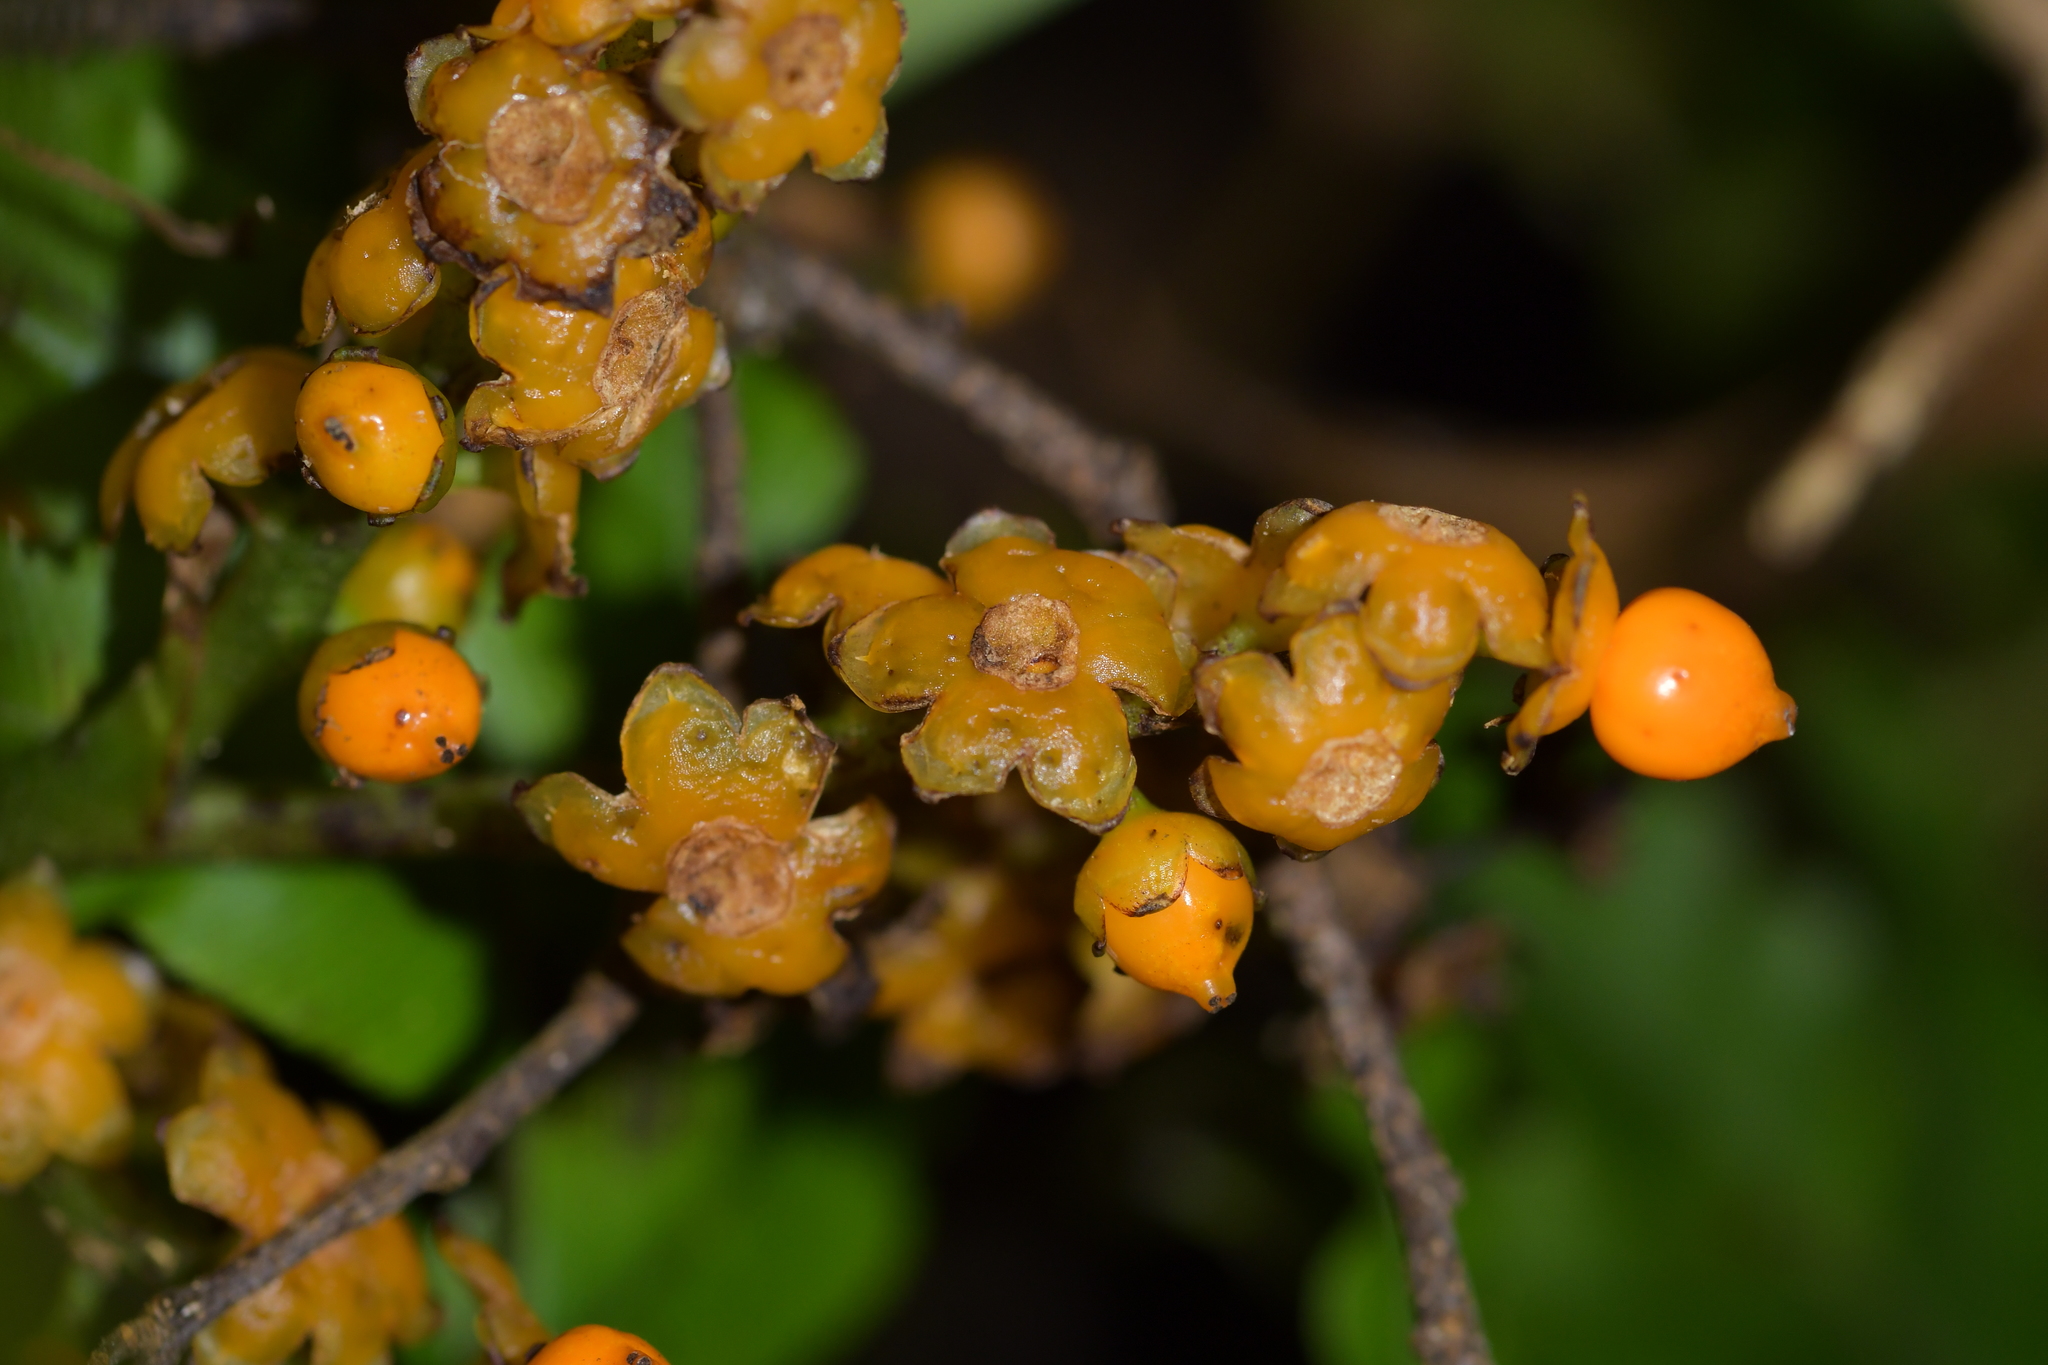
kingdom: Plantae
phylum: Tracheophyta
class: Liliopsida
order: Asparagales
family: Asteliaceae
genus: Astelia
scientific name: Astelia fragrans
